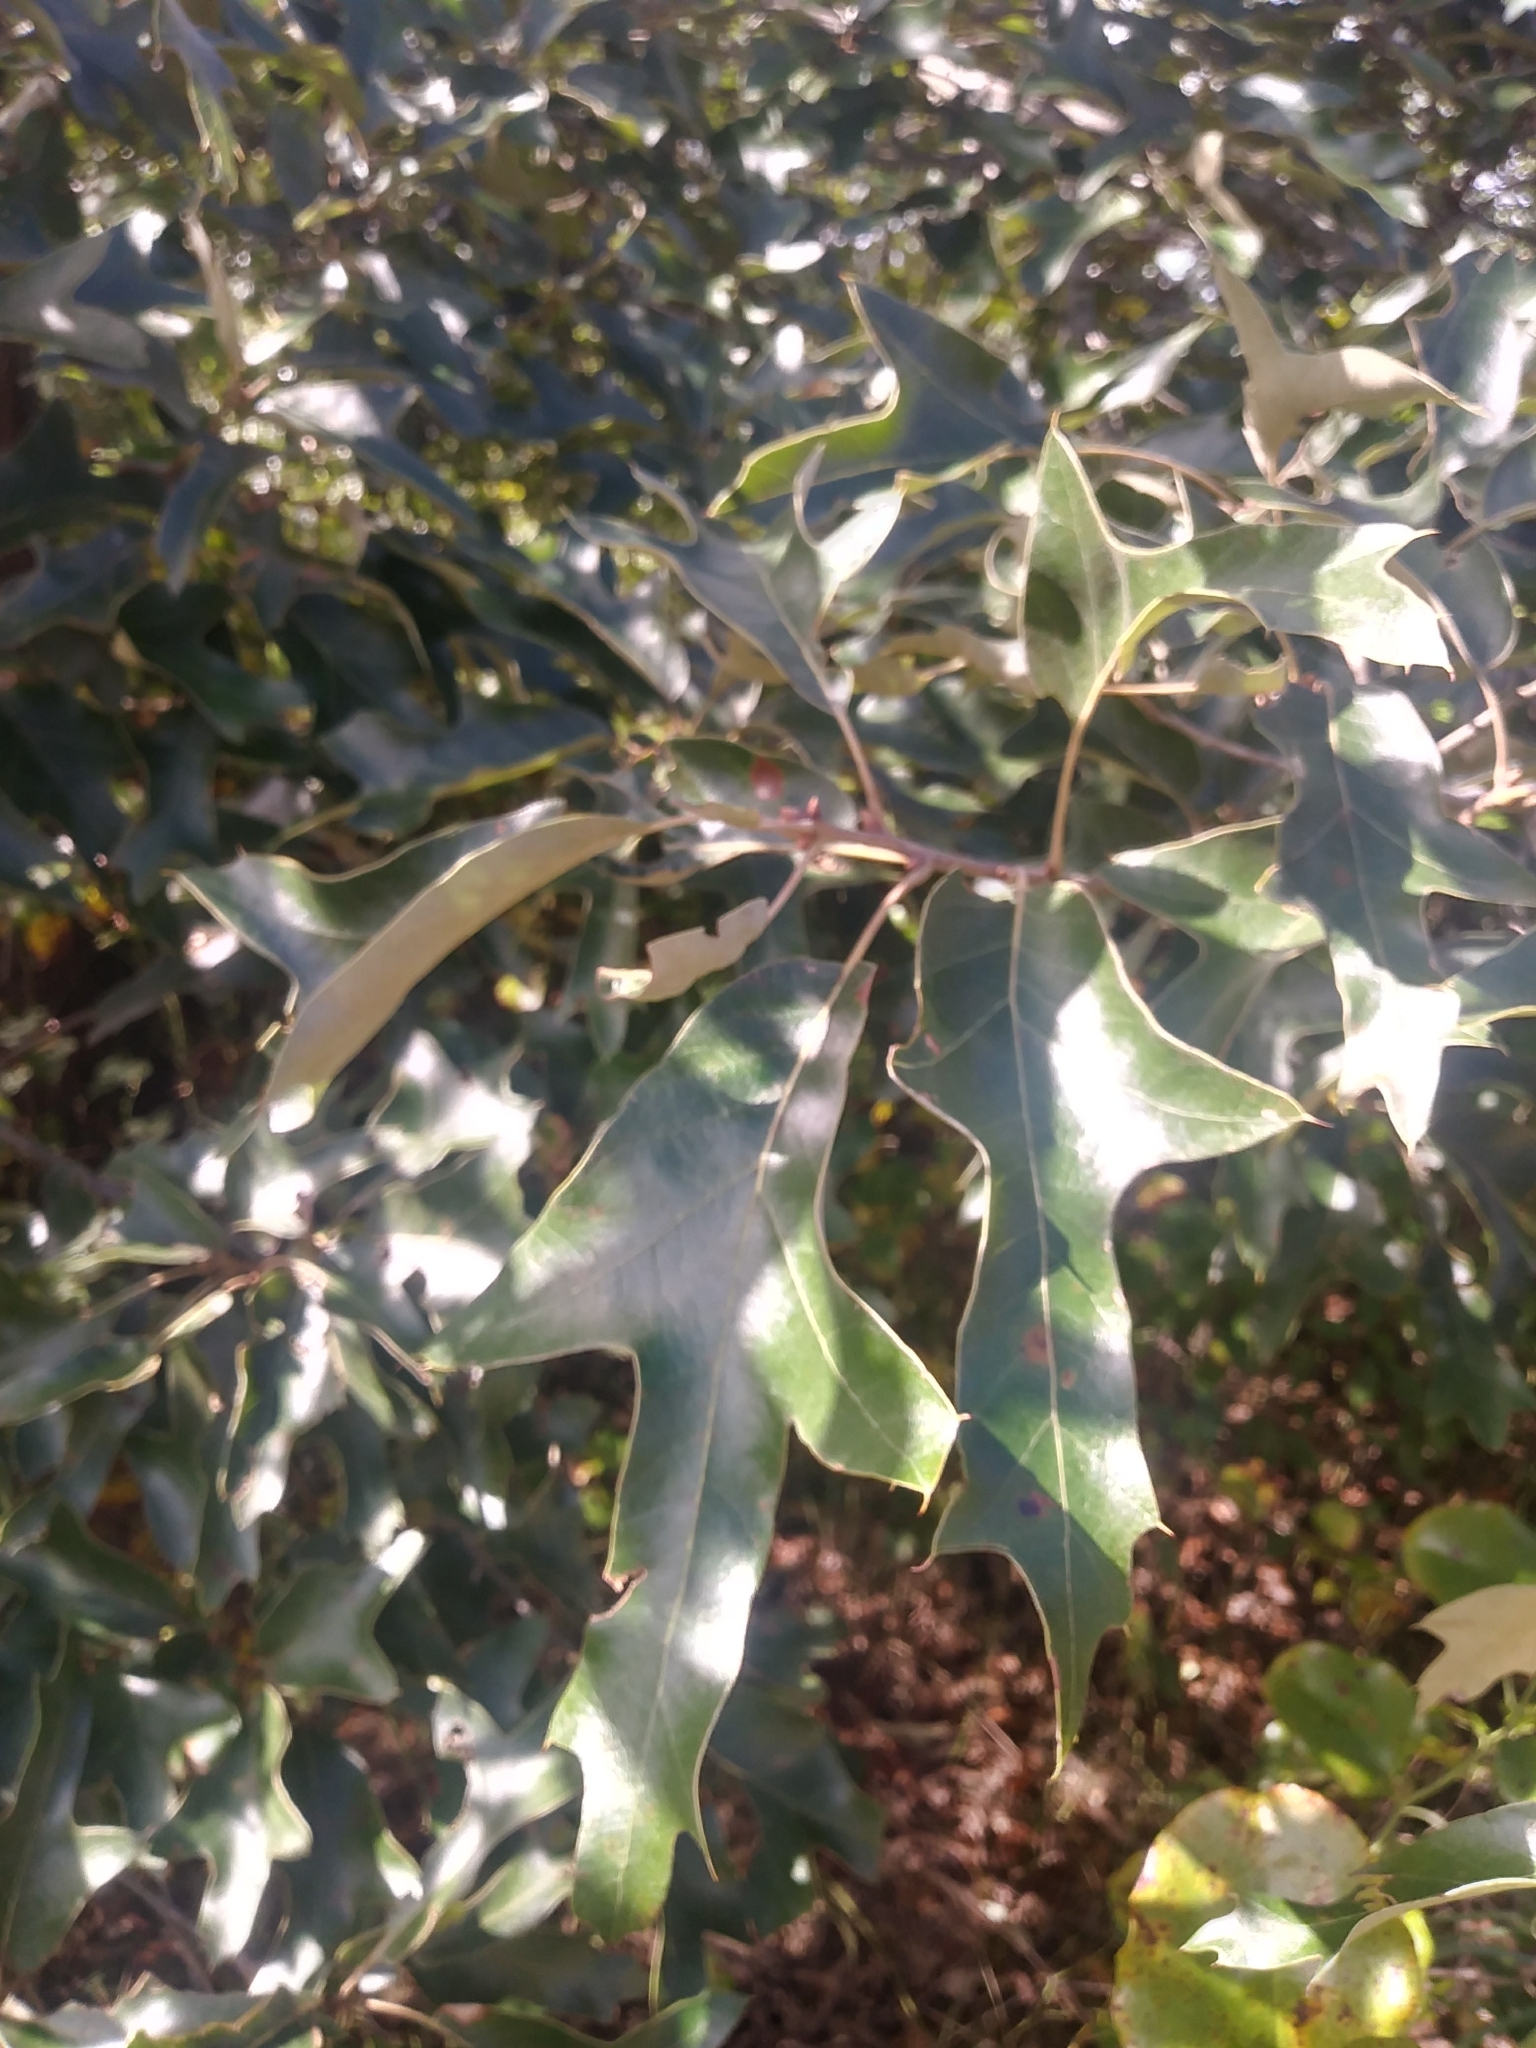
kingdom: Plantae
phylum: Tracheophyta
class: Magnoliopsida
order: Fagales
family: Fagaceae
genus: Quercus
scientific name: Quercus falcata
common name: Southern red oak
